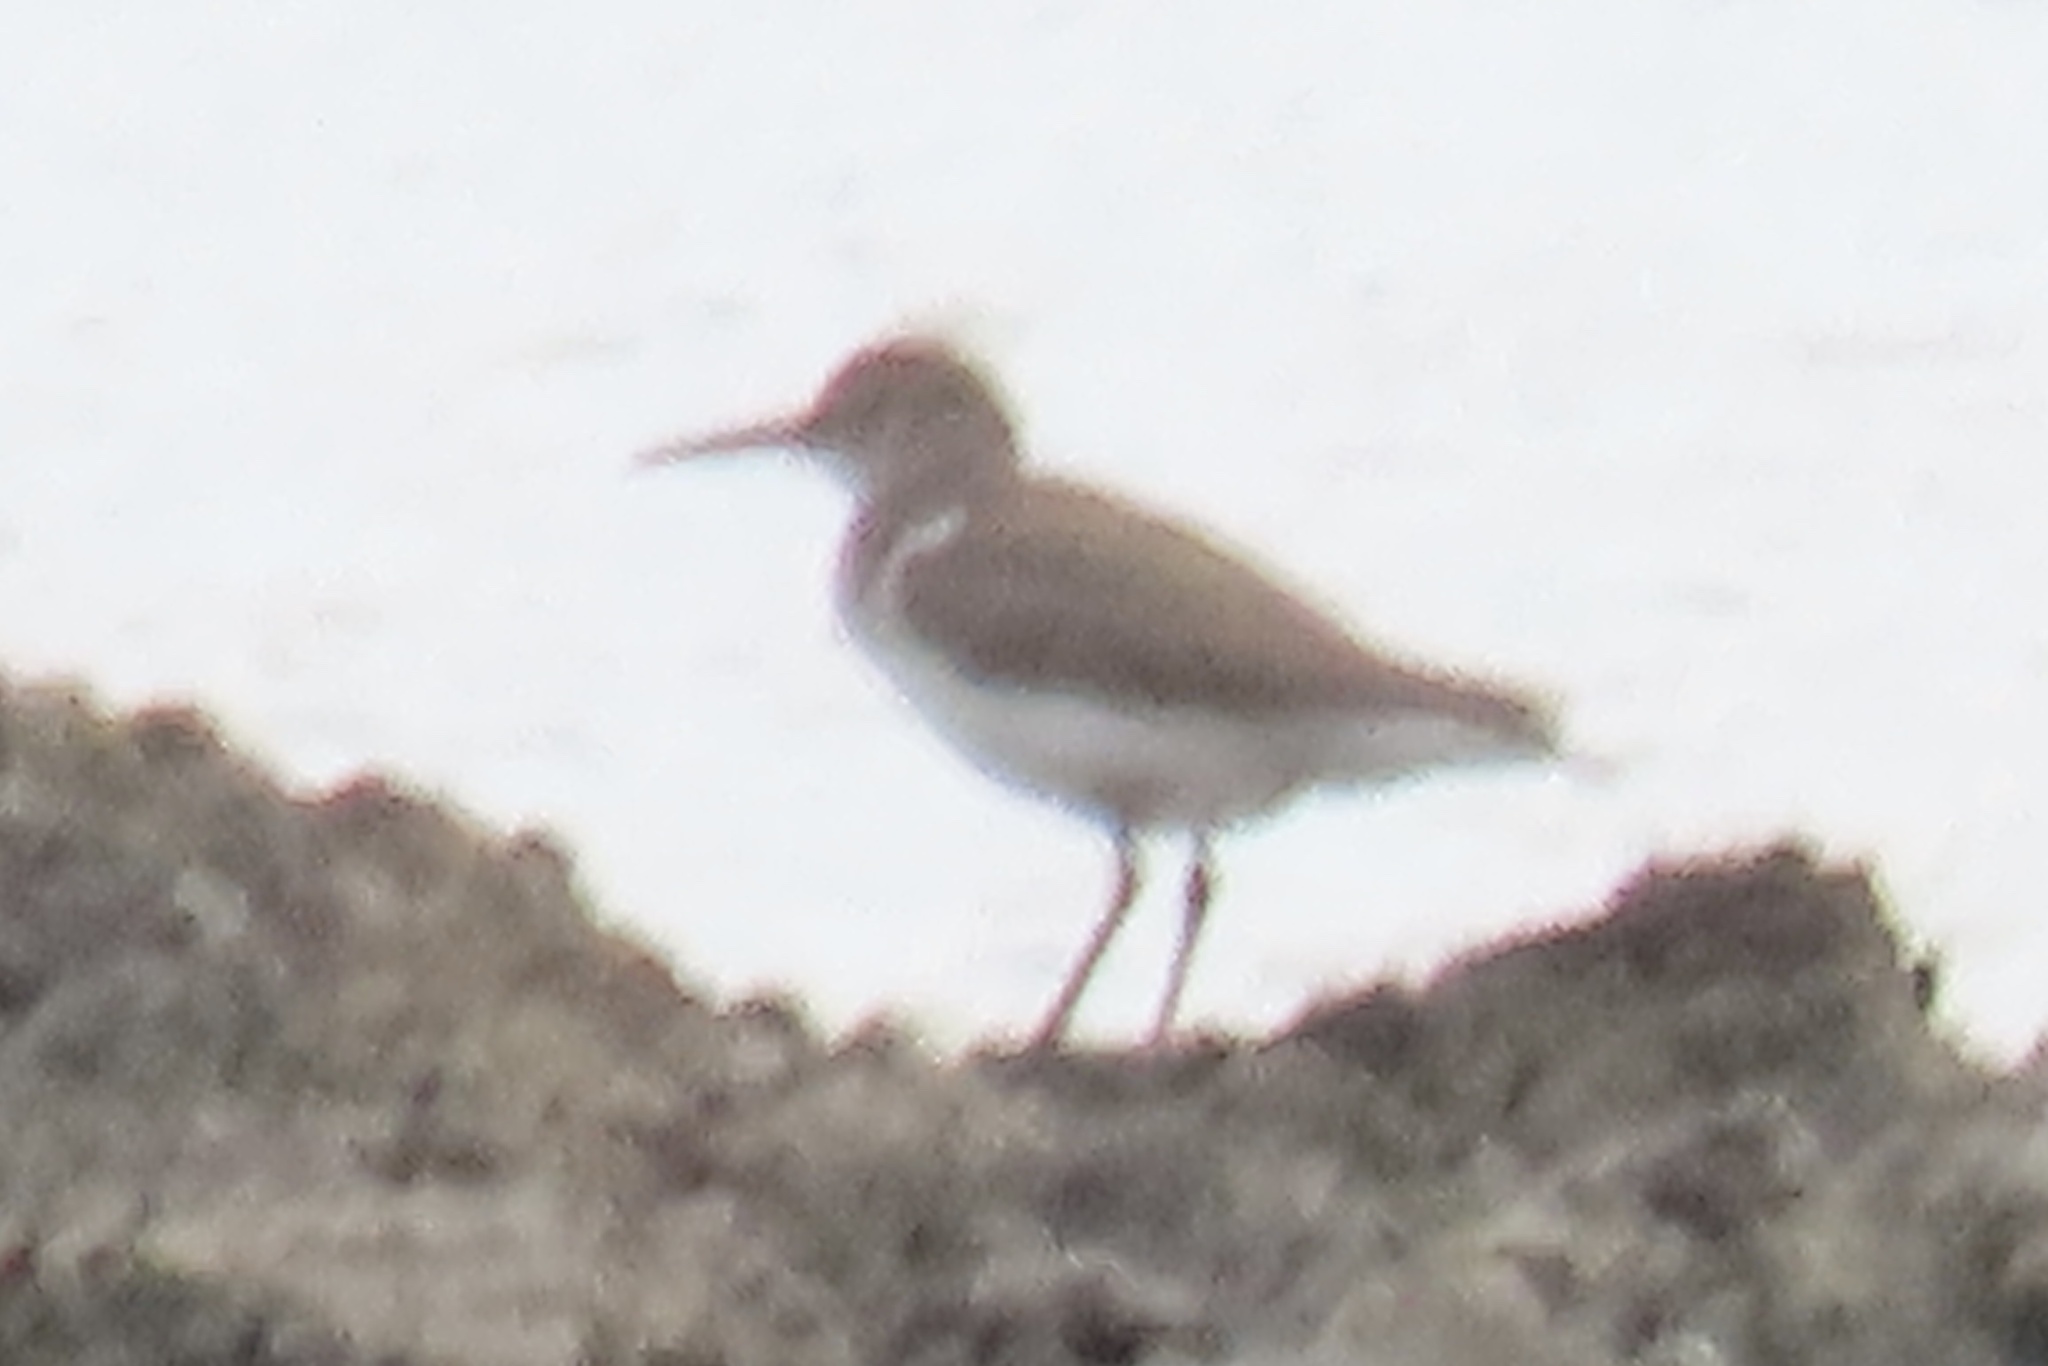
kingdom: Animalia
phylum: Chordata
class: Aves
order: Charadriiformes
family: Scolopacidae
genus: Actitis
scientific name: Actitis macularius
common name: Spotted sandpiper
